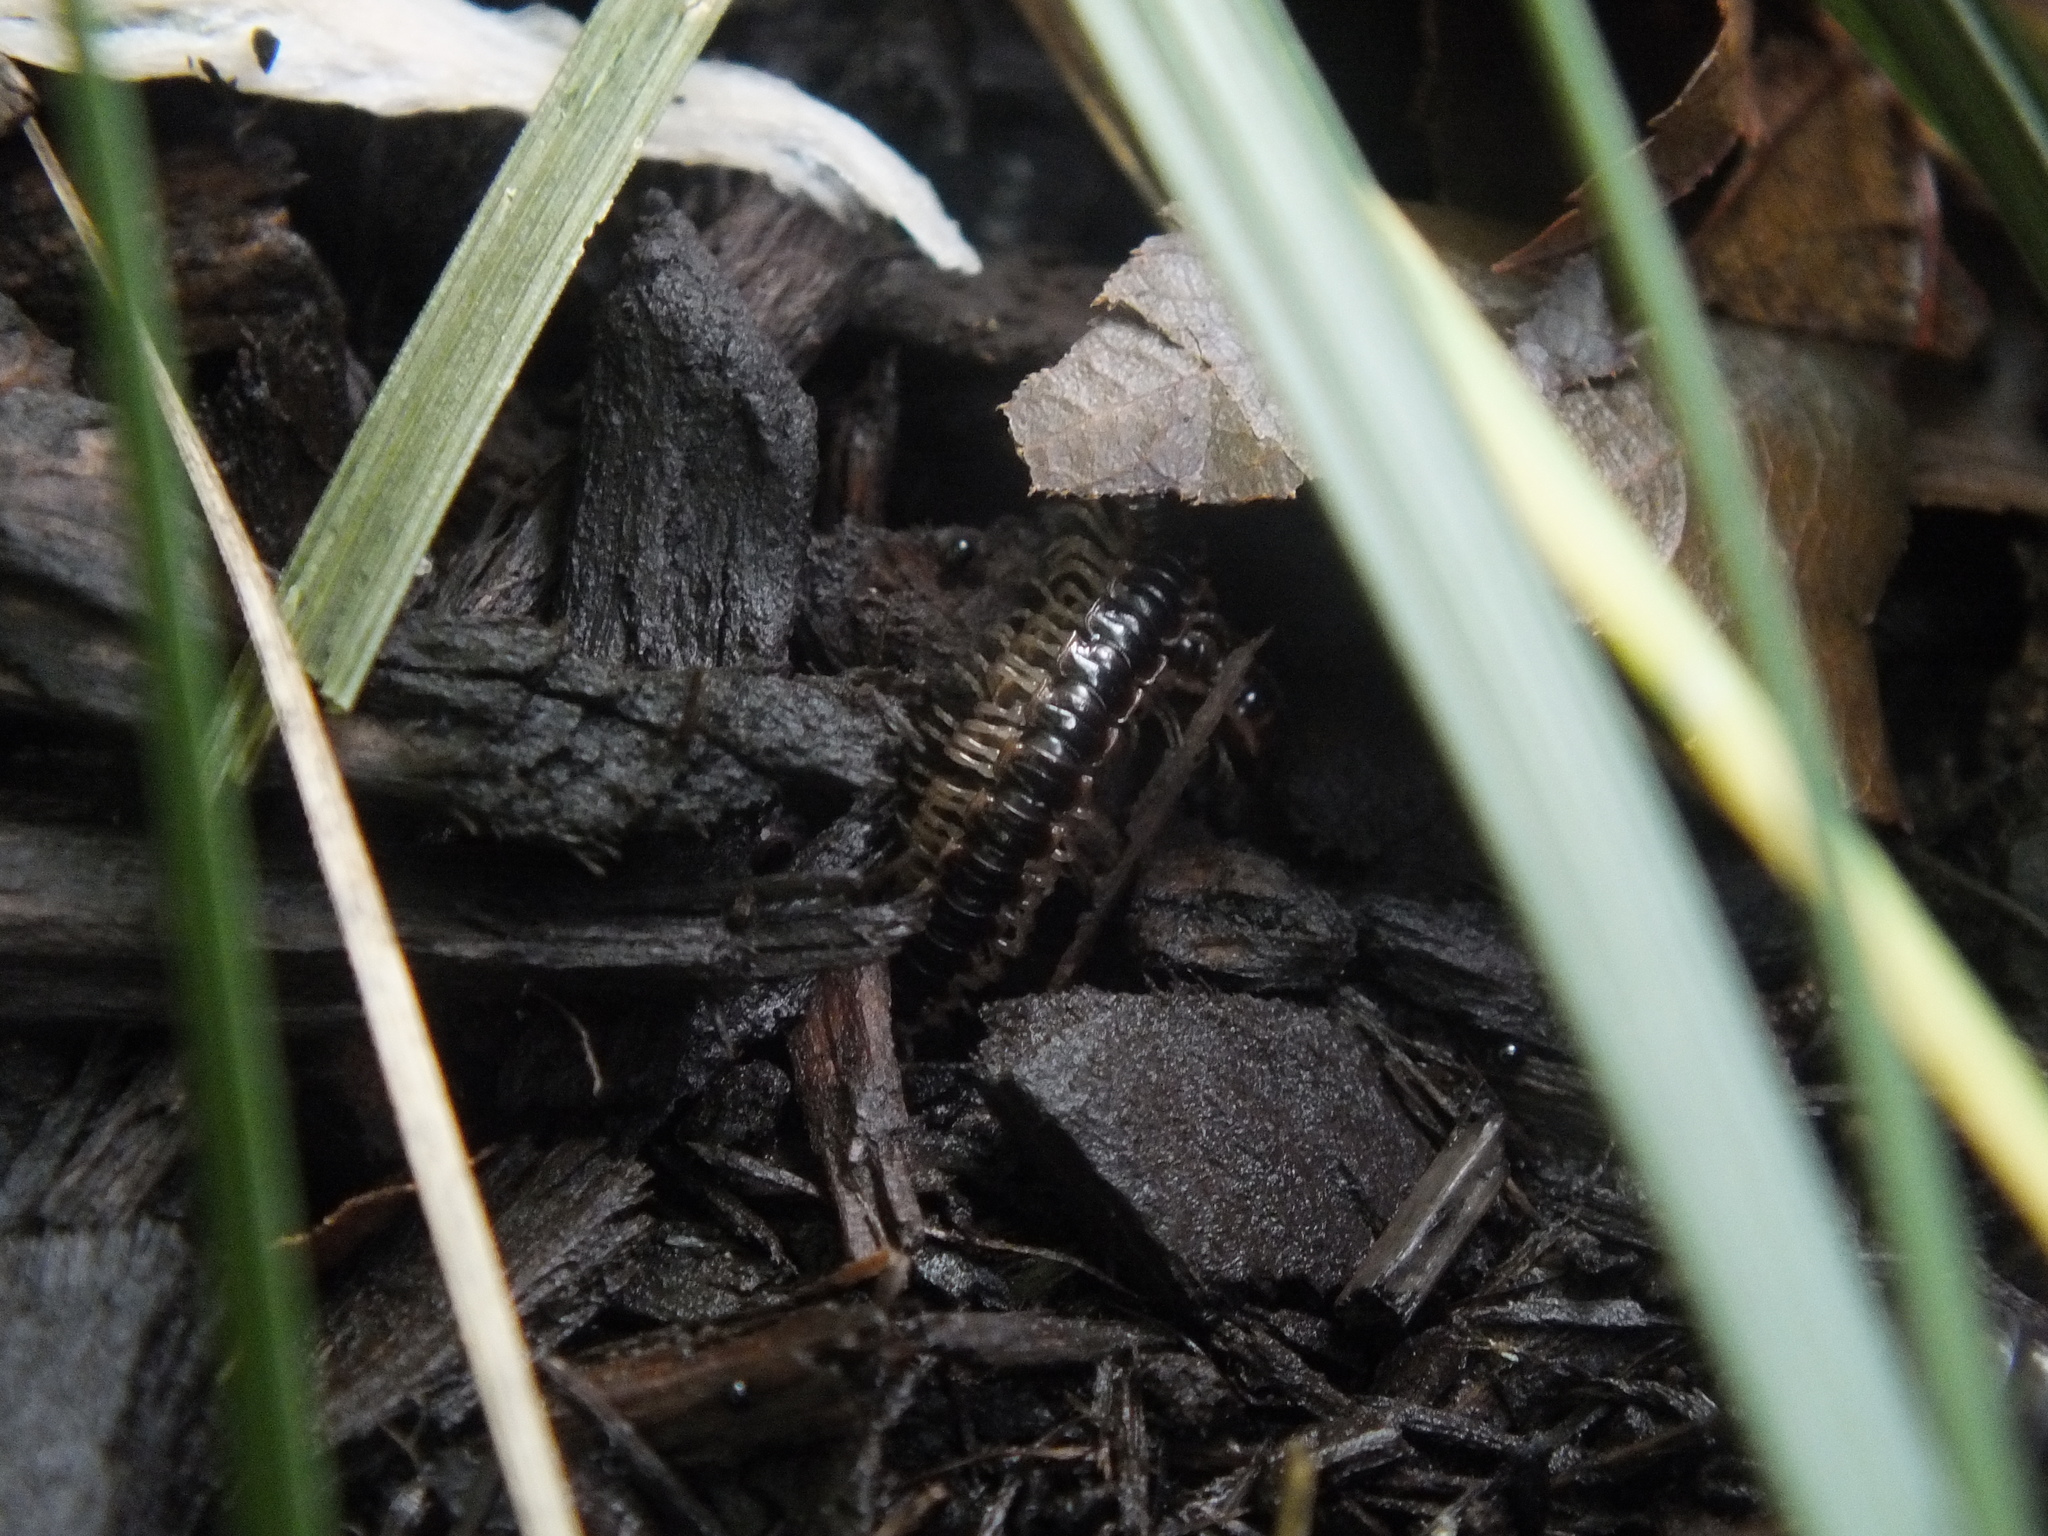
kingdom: Animalia
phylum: Arthropoda
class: Diplopoda
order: Polydesmida
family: Paradoxosomatidae
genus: Oxidus
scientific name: Oxidus gracilis
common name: Greenhouse millipede
